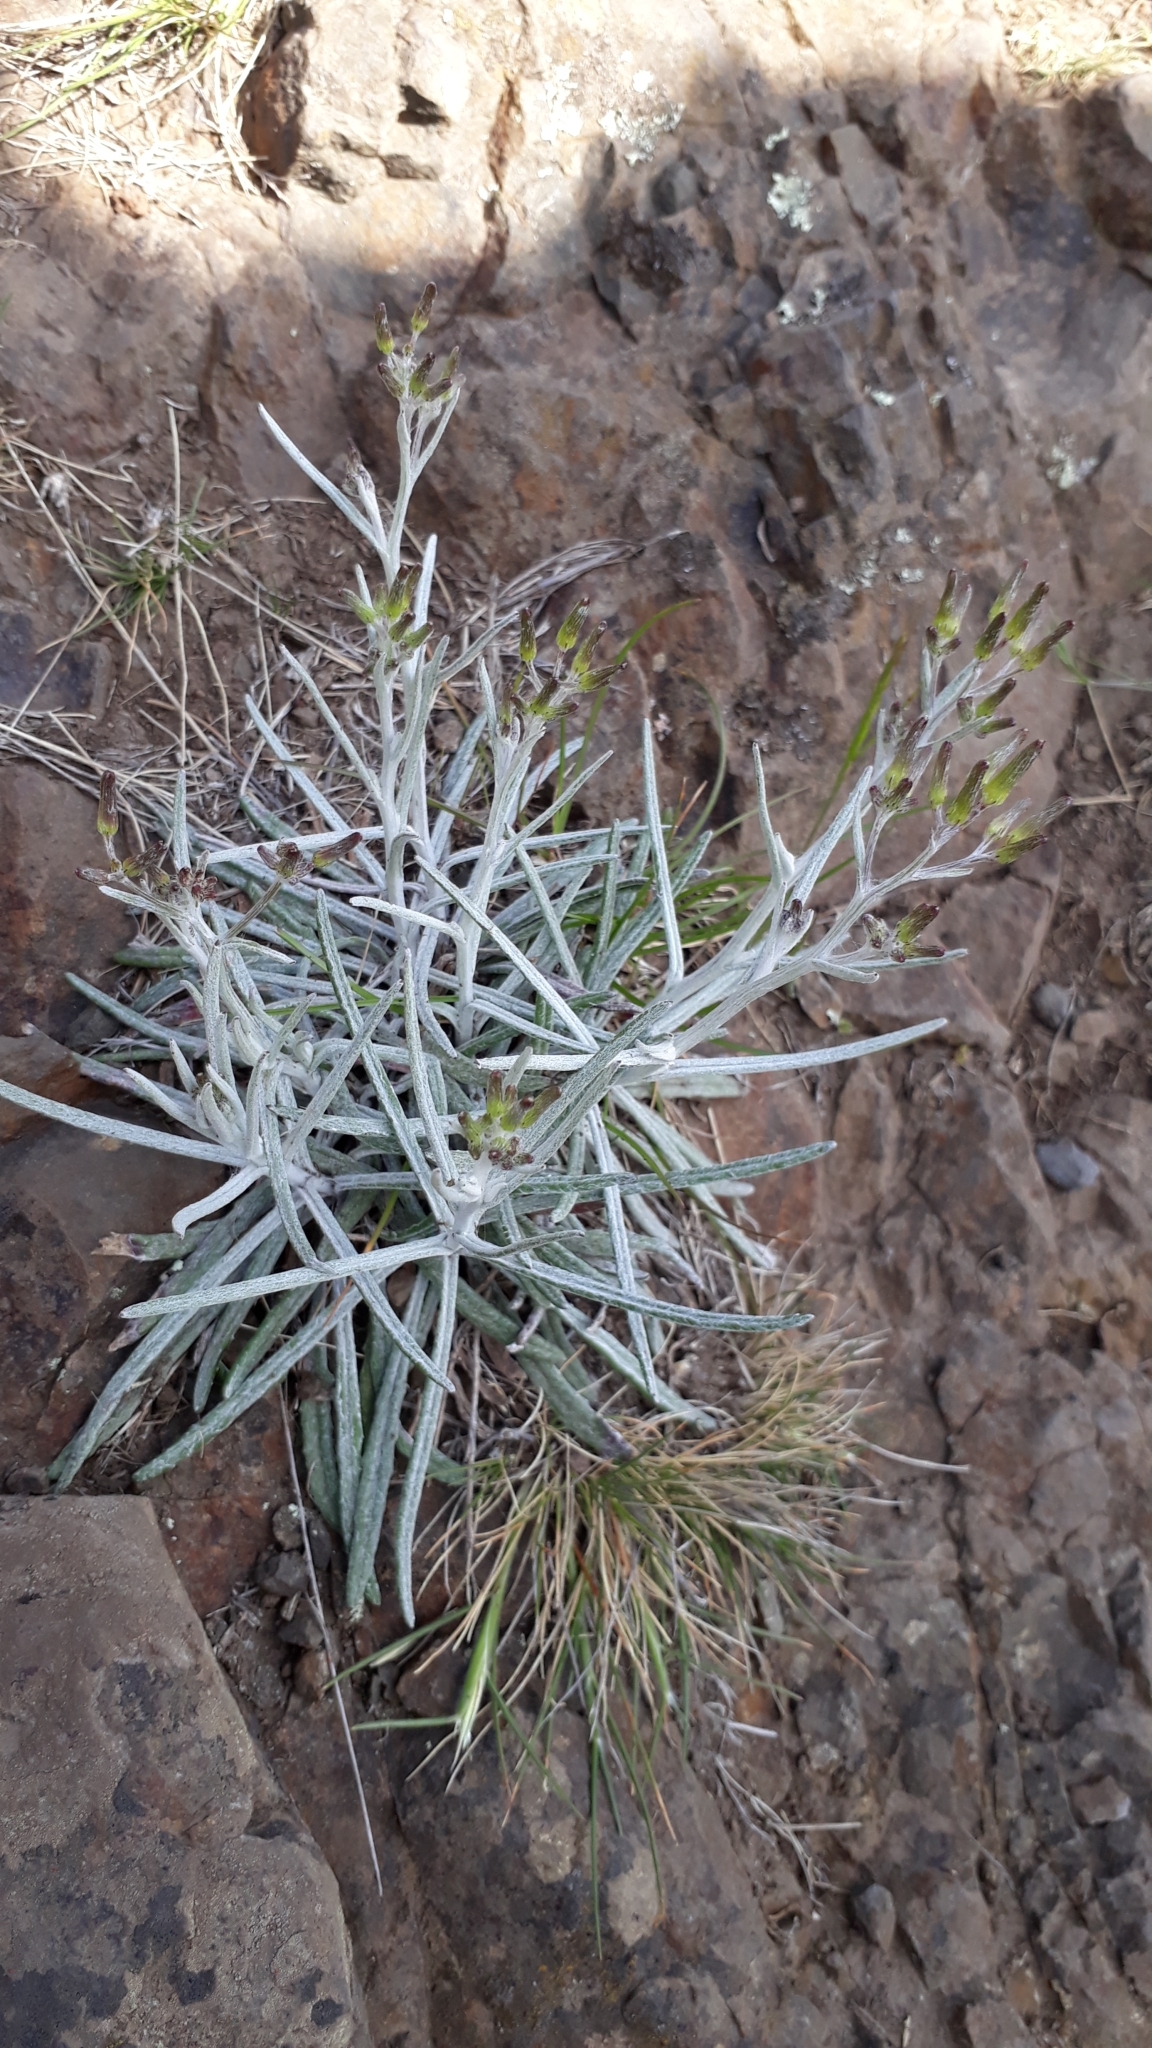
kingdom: Plantae
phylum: Tracheophyta
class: Magnoliopsida
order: Asterales
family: Asteraceae
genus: Senecio
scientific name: Senecio quadridentatus
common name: Cotton fireweed
